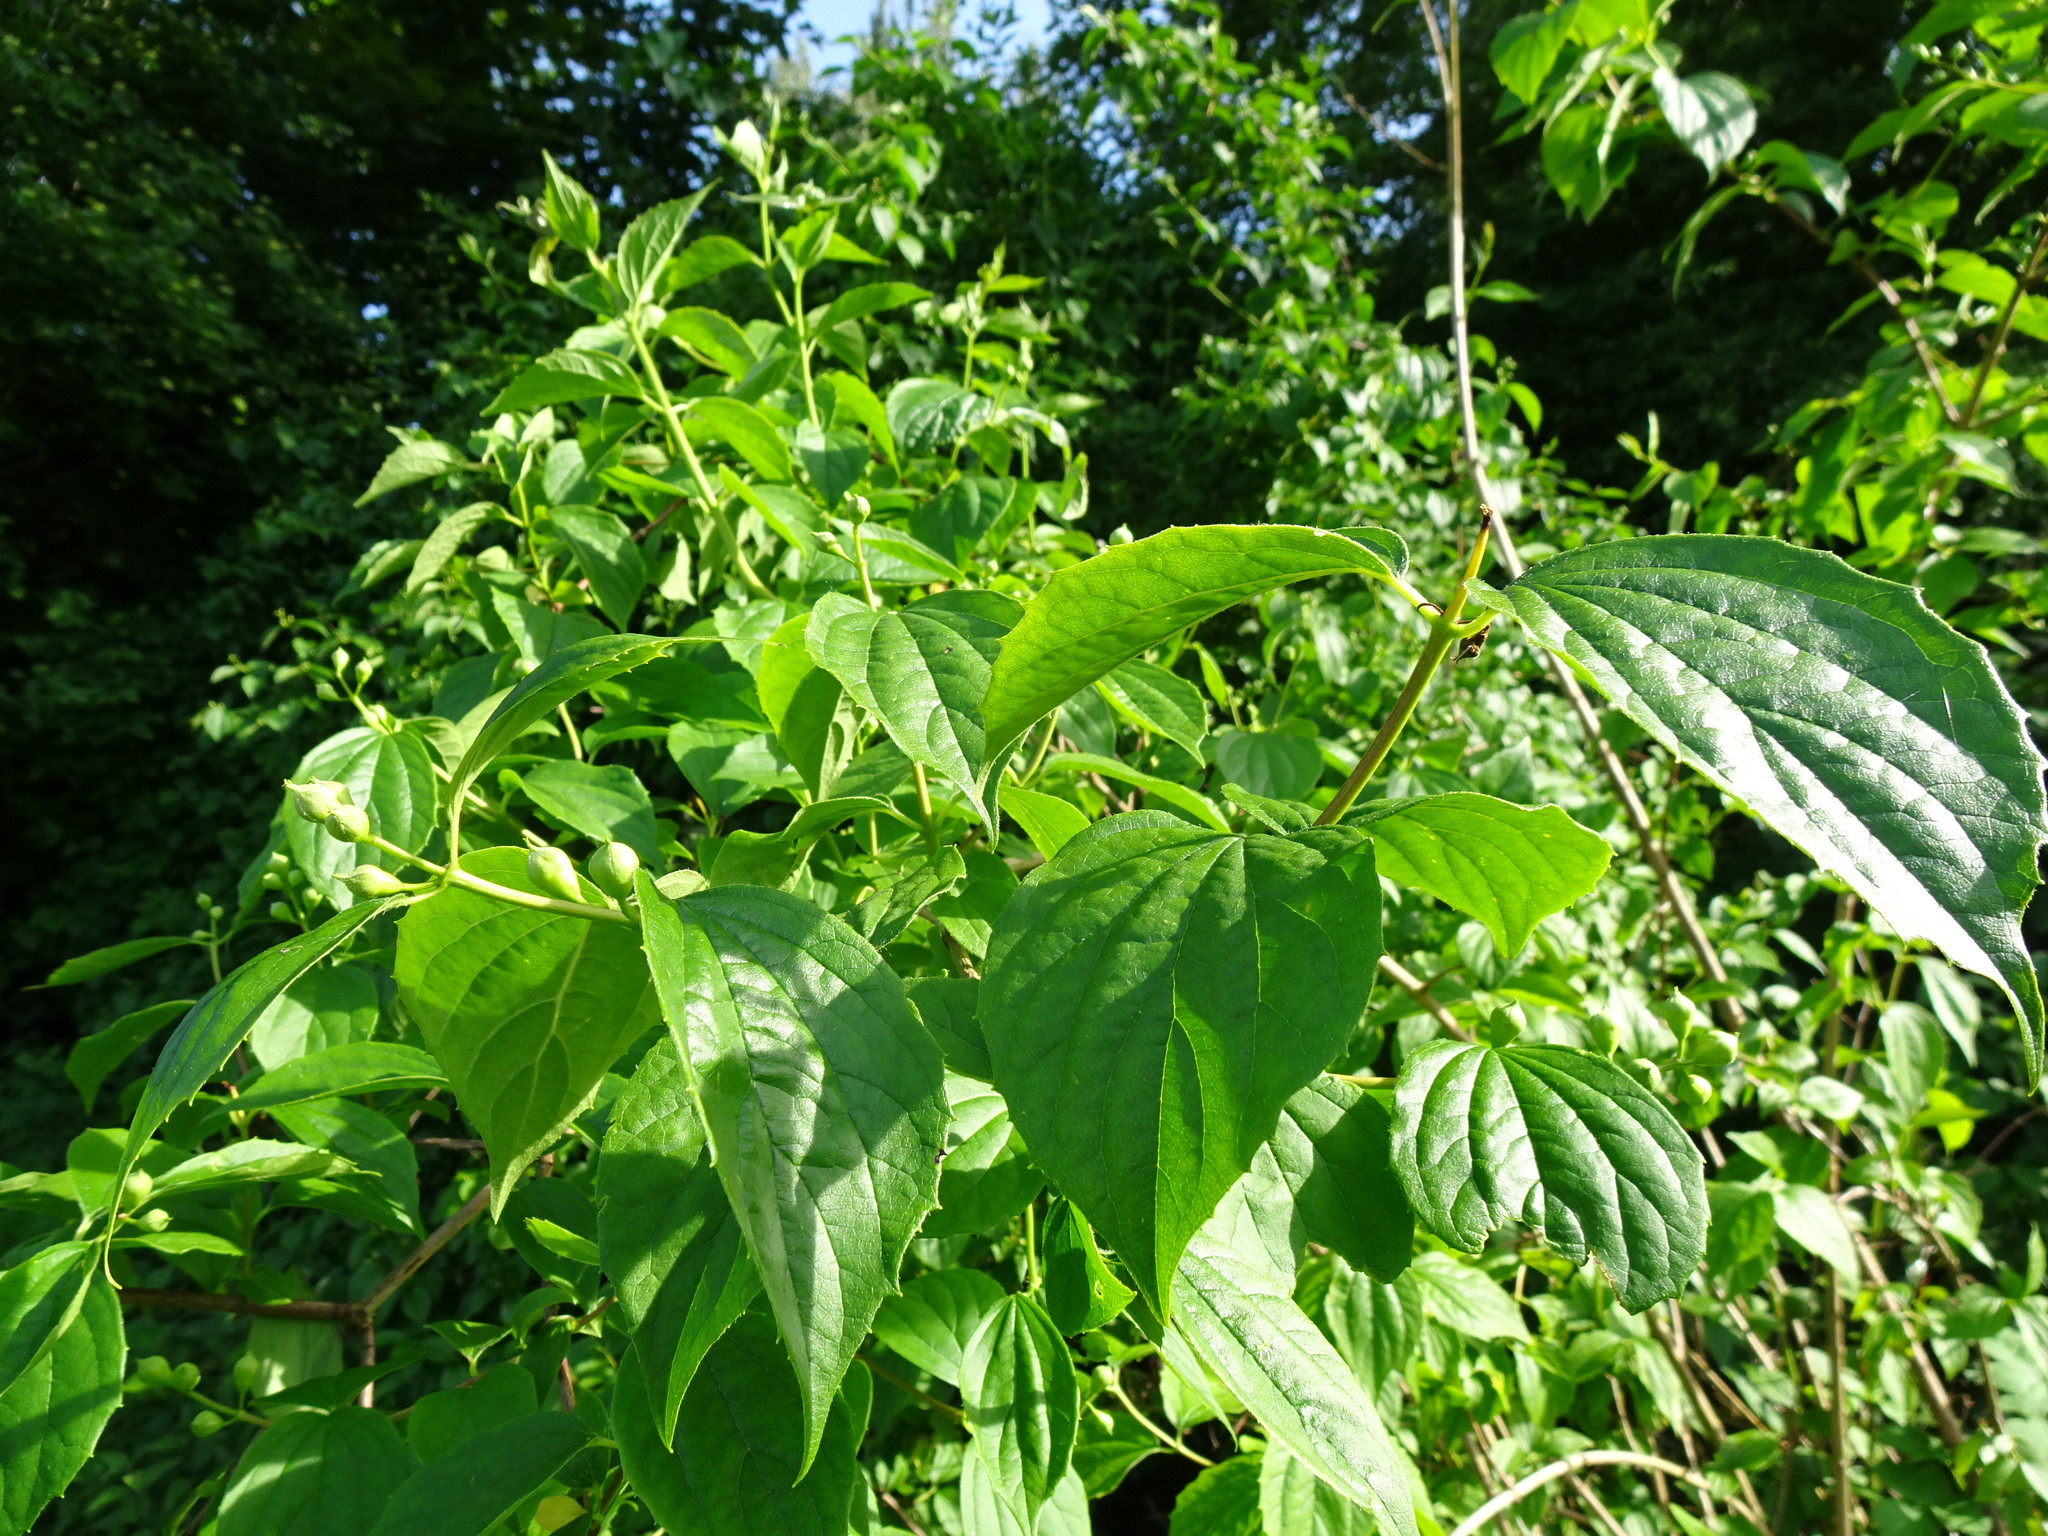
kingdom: Plantae
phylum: Tracheophyta
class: Magnoliopsida
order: Cornales
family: Hydrangeaceae
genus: Philadelphus
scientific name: Philadelphus coronarius
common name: Mock orange
